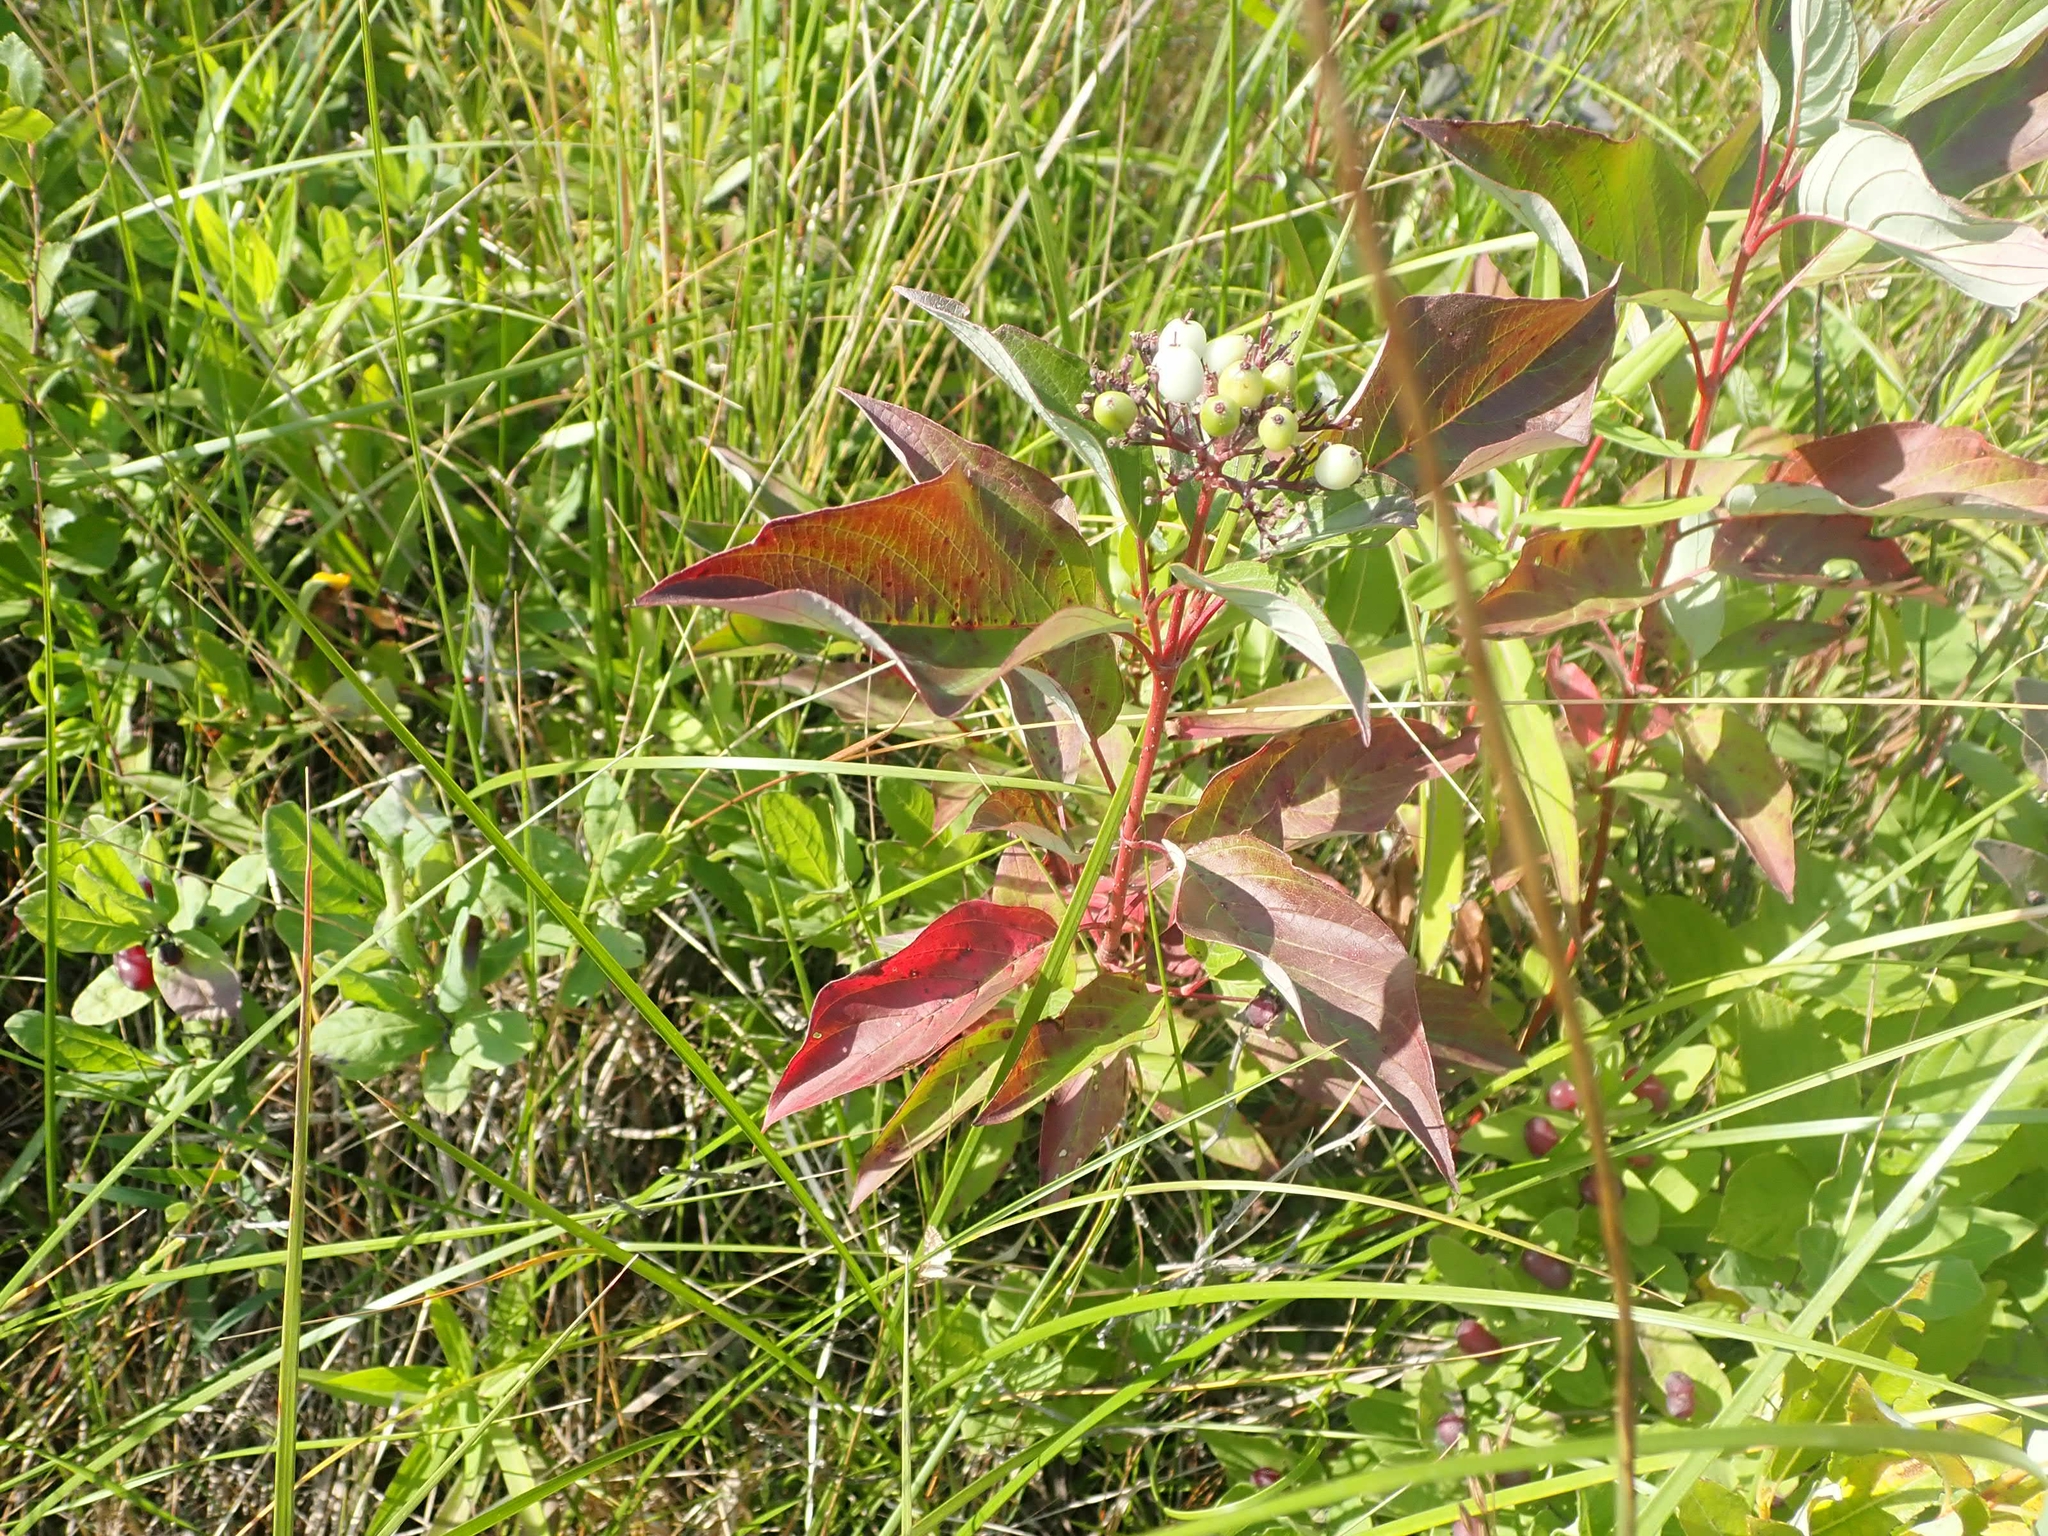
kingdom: Plantae
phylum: Tracheophyta
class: Magnoliopsida
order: Cornales
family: Cornaceae
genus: Cornus
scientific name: Cornus sericea
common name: Red-osier dogwood
